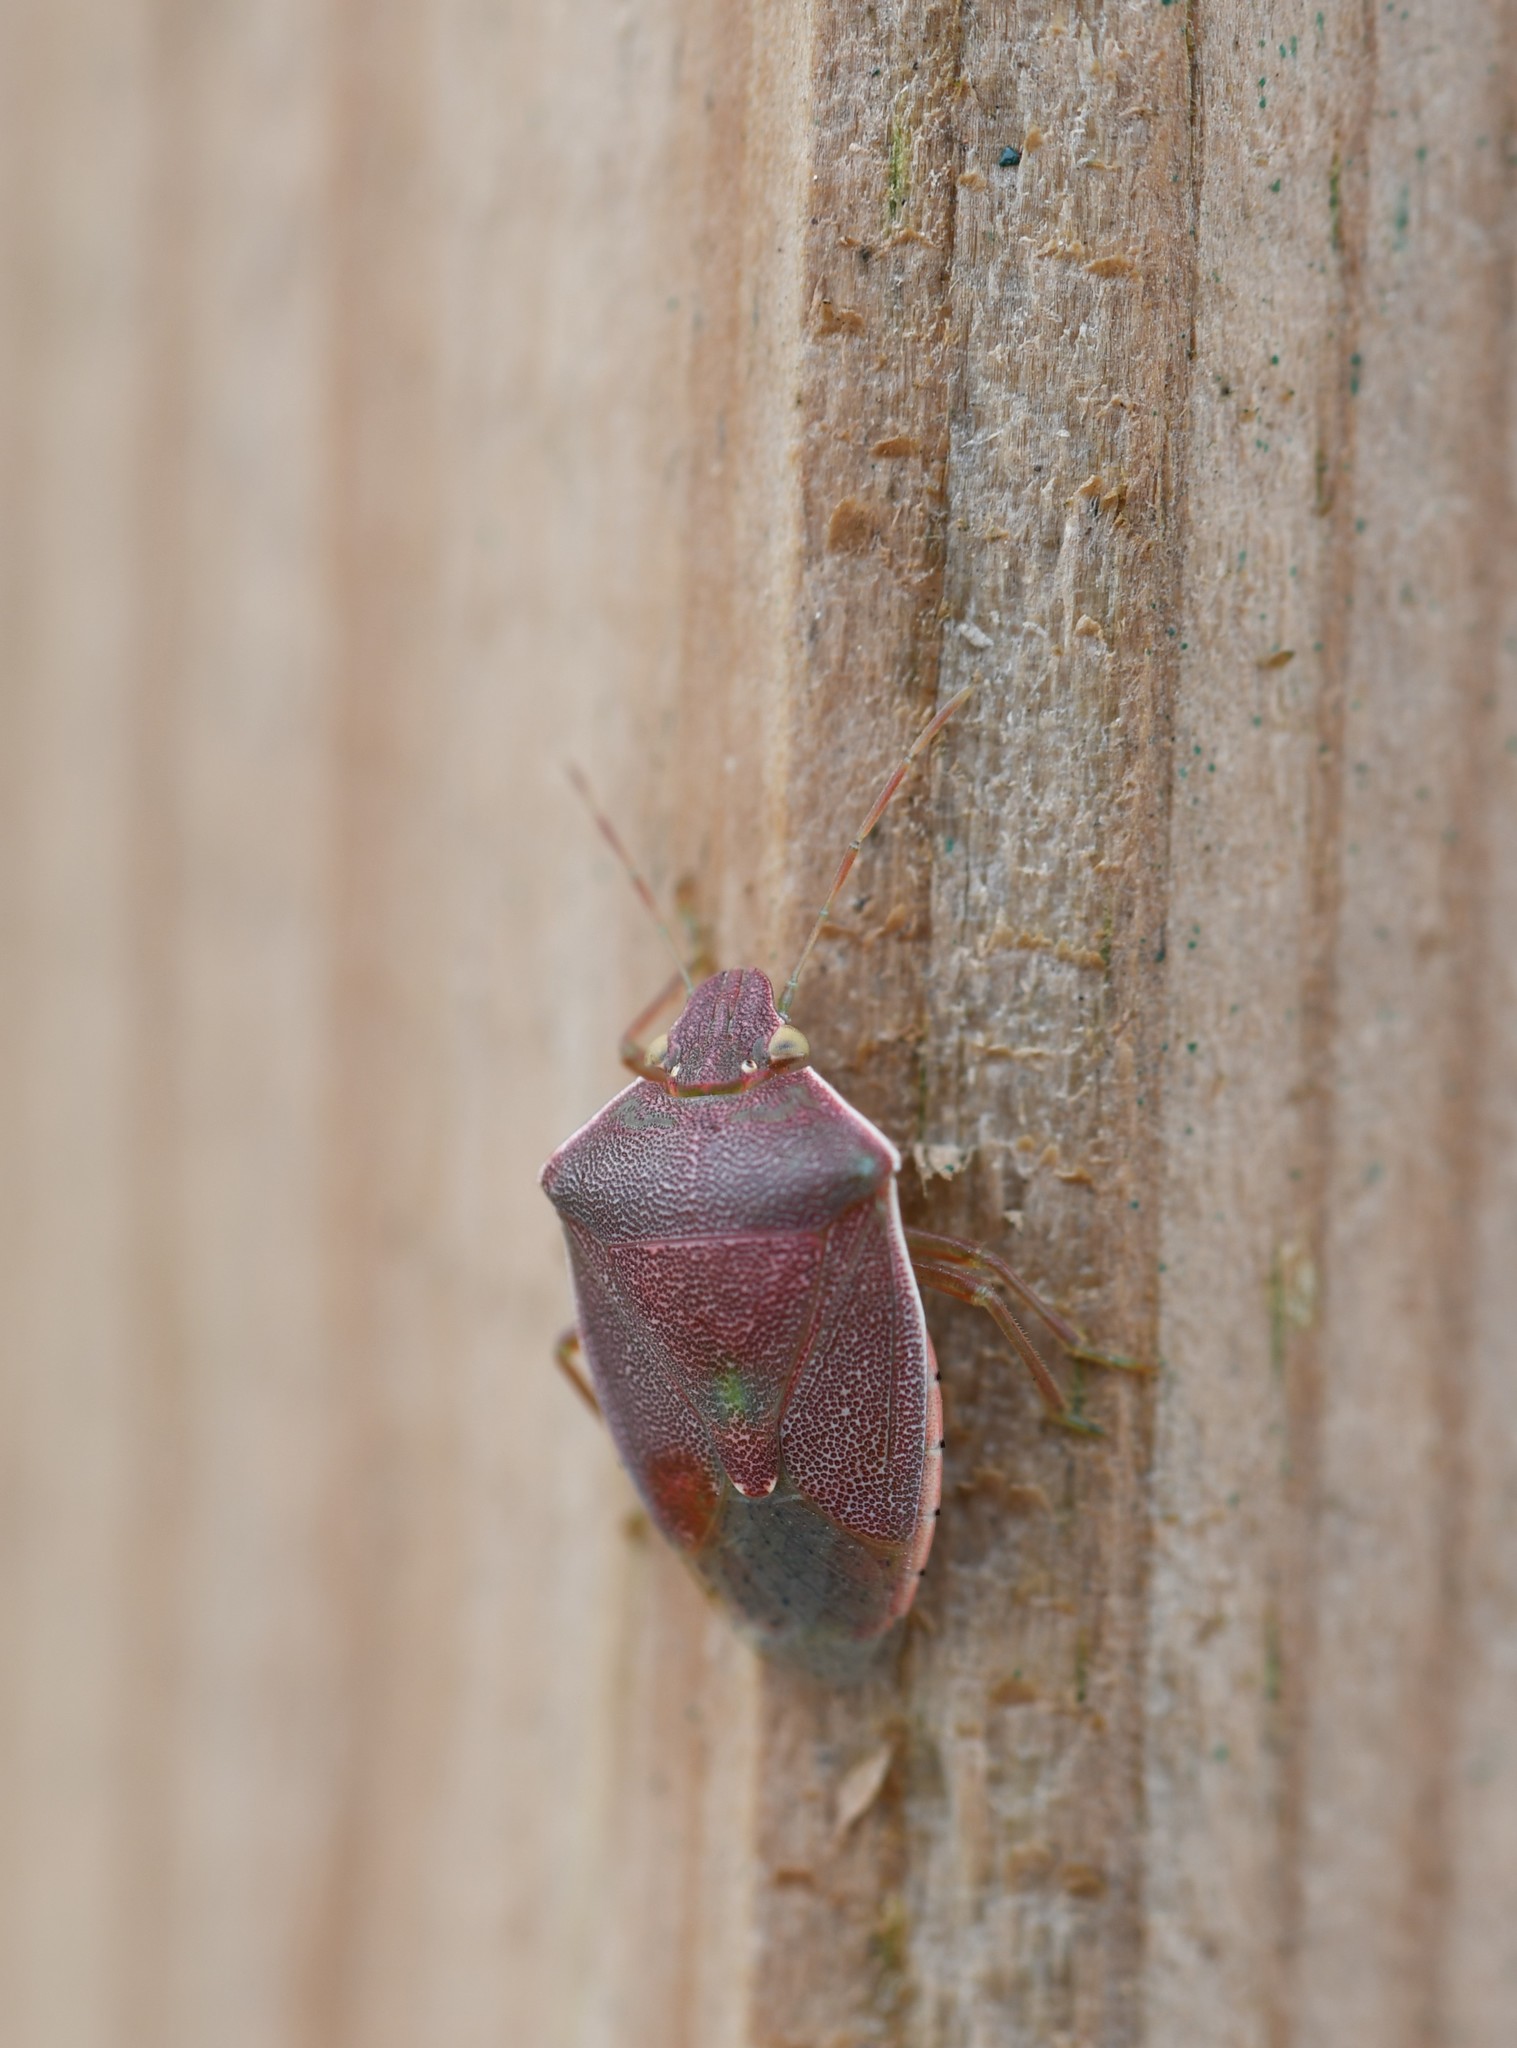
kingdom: Animalia
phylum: Arthropoda
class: Insecta
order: Hemiptera
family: Pentatomidae
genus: Acrosternum
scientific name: Acrosternum heegeri
